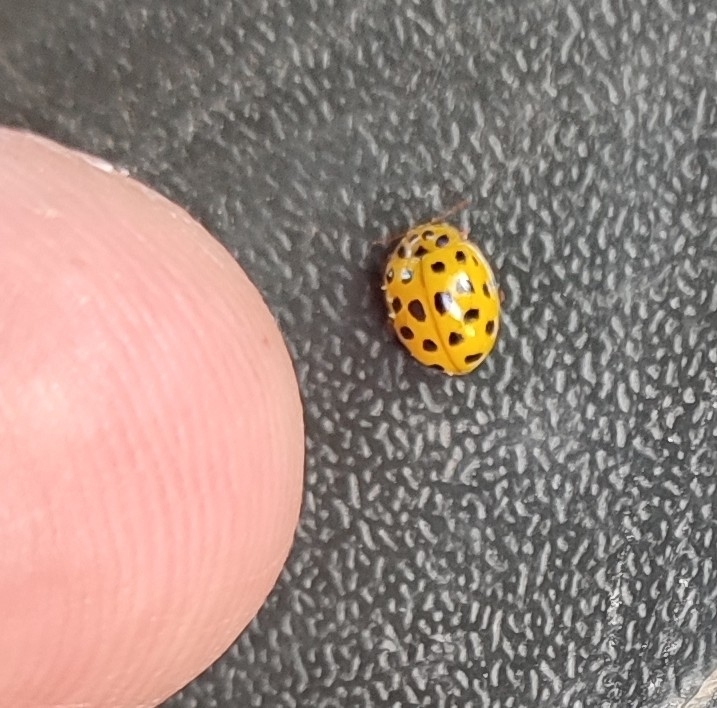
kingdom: Animalia
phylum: Arthropoda
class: Insecta
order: Coleoptera
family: Coccinellidae
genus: Psyllobora
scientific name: Psyllobora vigintiduopunctata
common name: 22-spot ladybird
